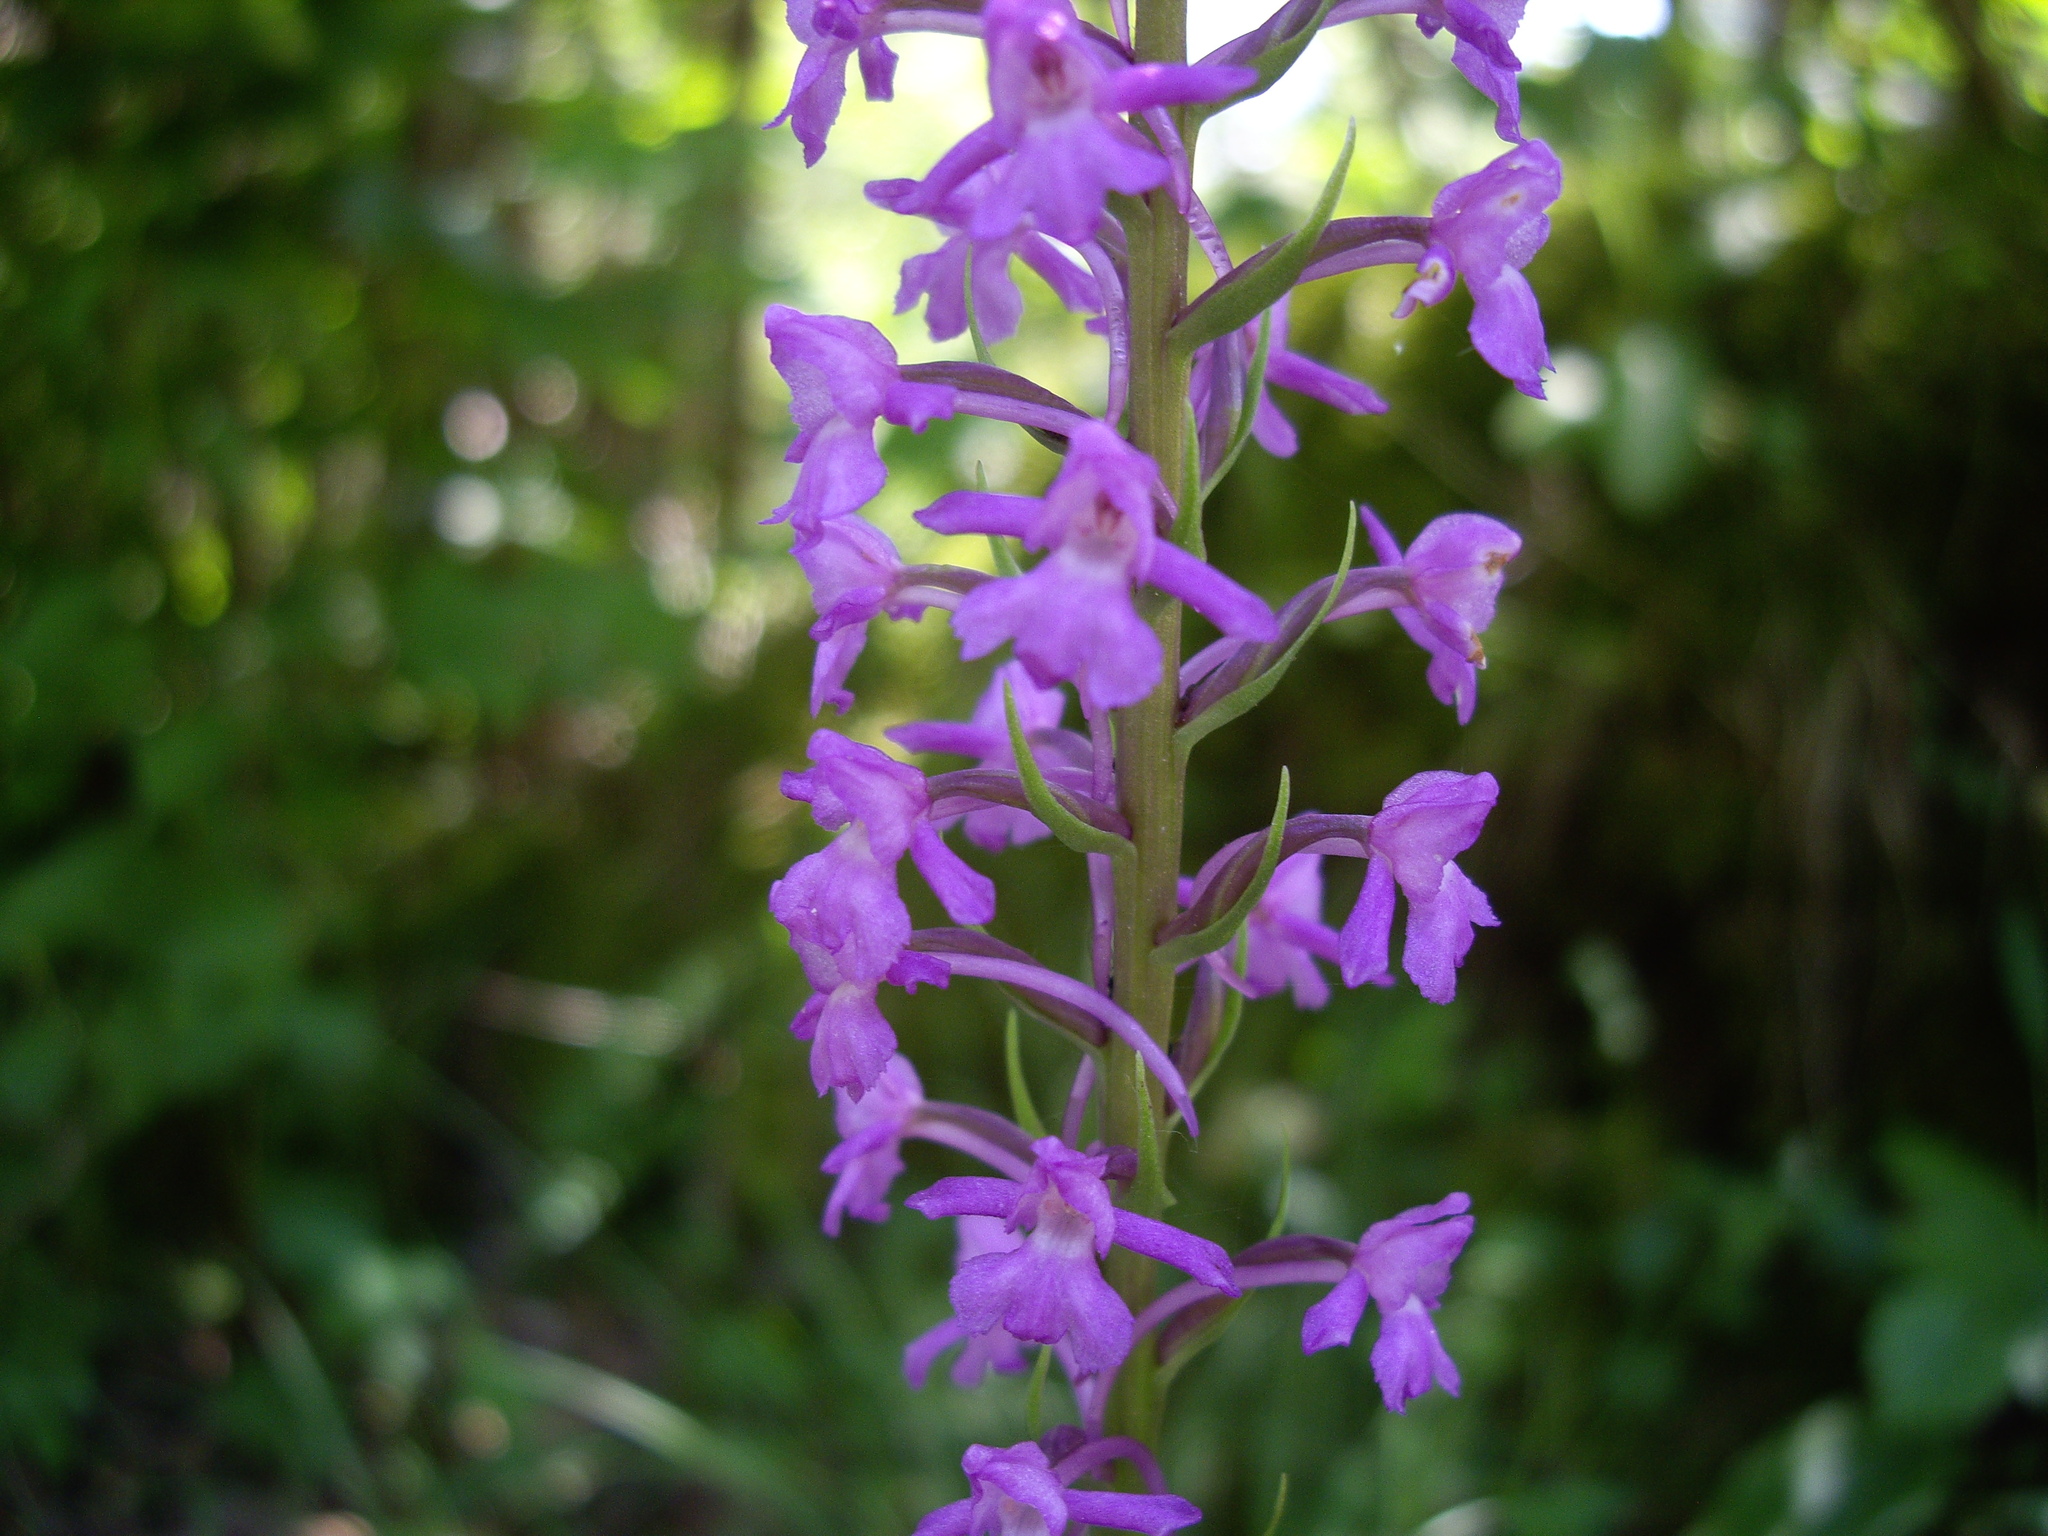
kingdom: Plantae
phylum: Tracheophyta
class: Liliopsida
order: Asparagales
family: Orchidaceae
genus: Gymnadenia
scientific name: Gymnadenia conopsea
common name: Fragrant orchid
